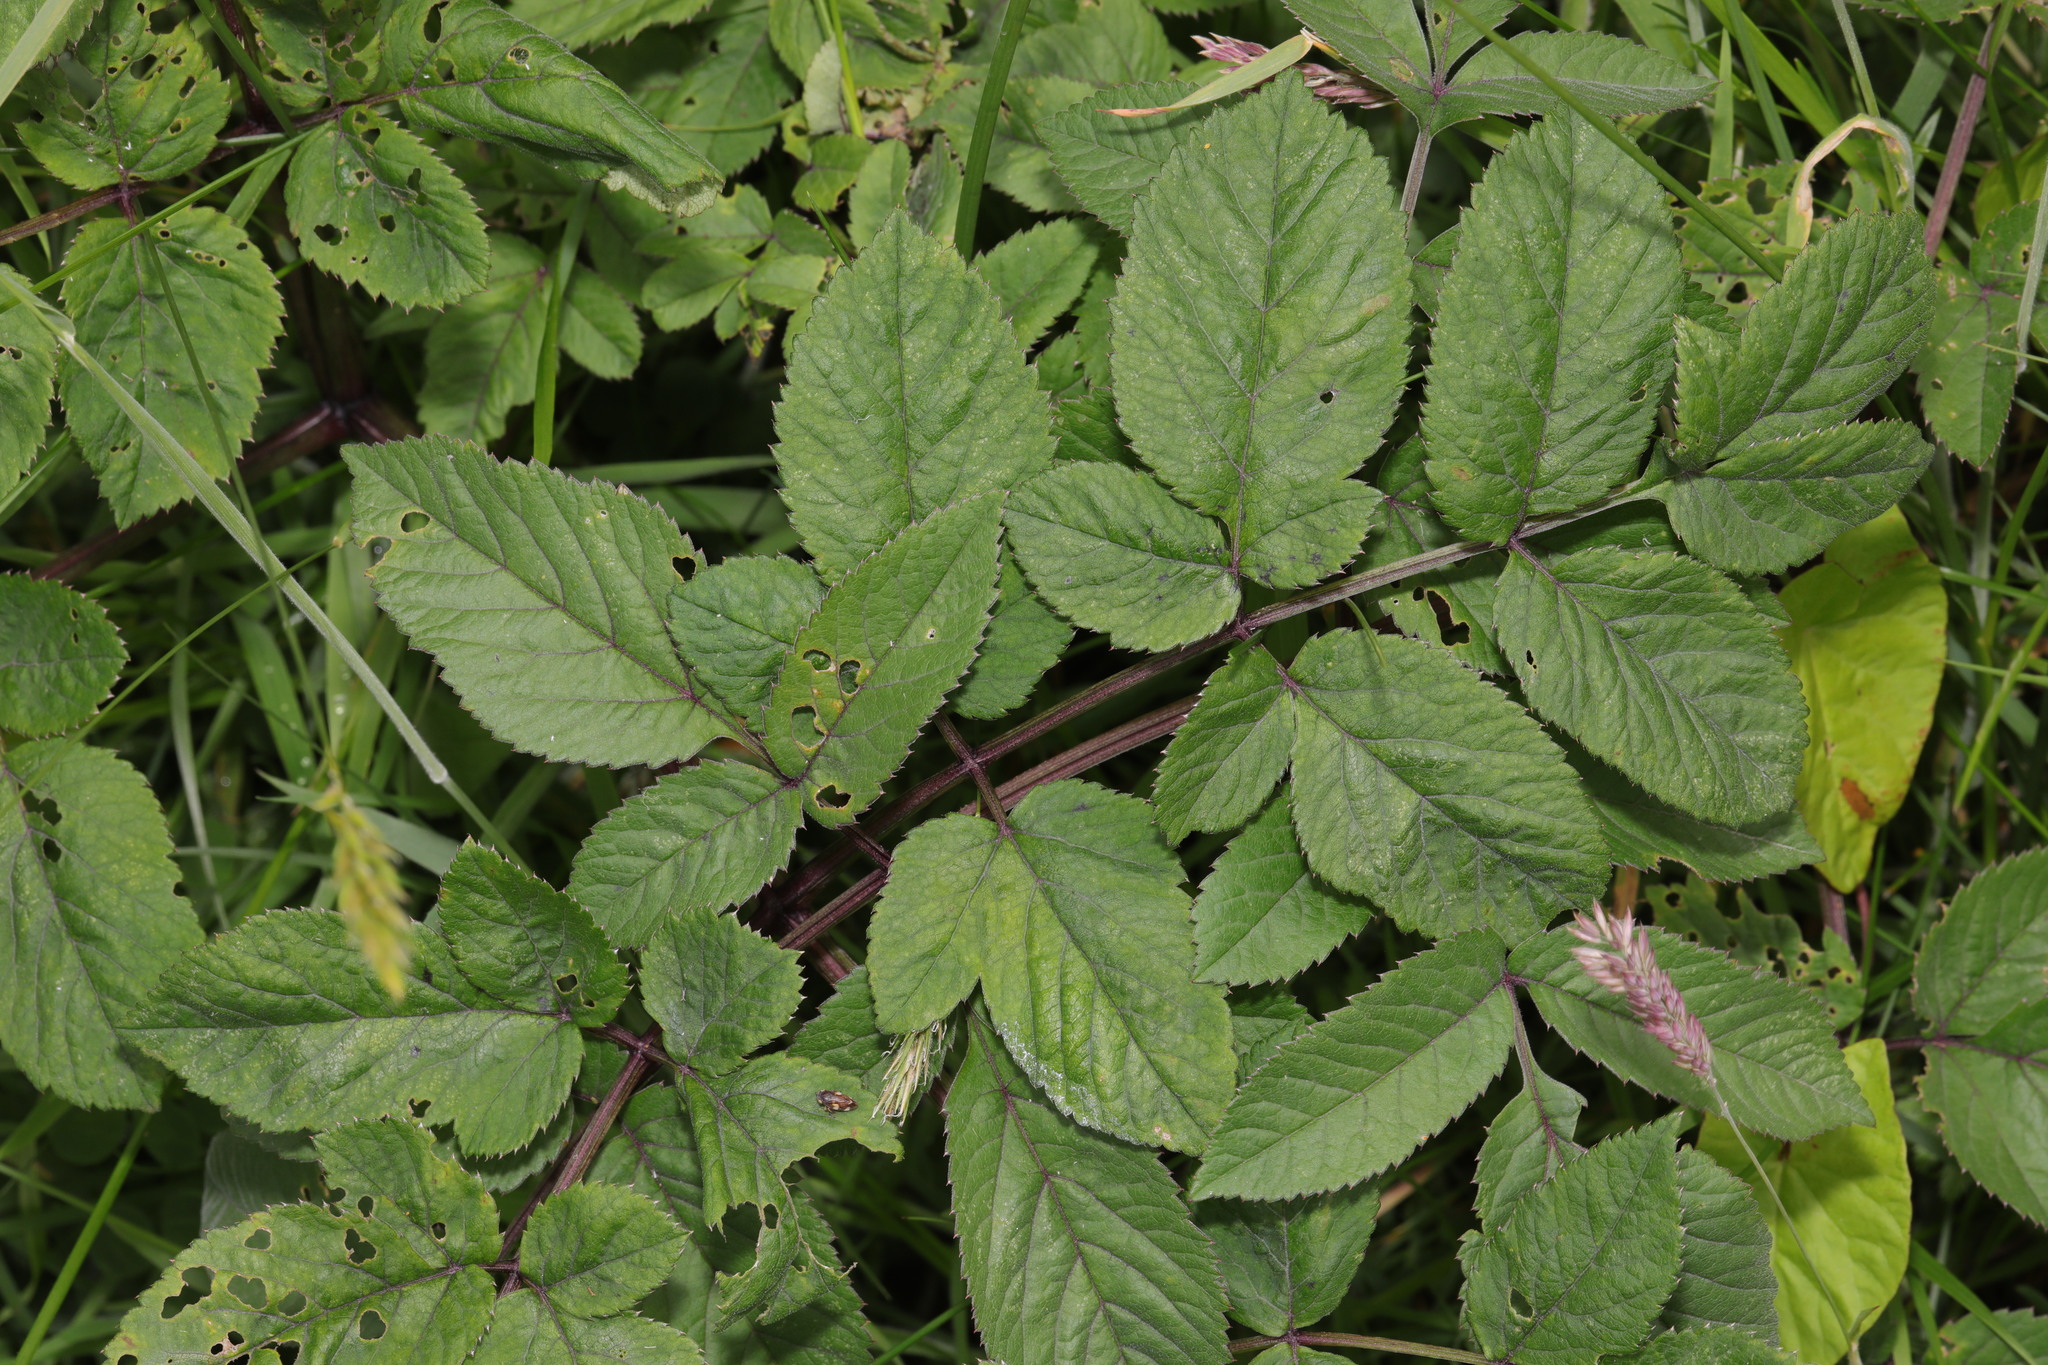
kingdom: Plantae
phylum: Tracheophyta
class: Magnoliopsida
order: Apiales
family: Apiaceae
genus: Angelica
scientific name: Angelica sylvestris
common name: Wild angelica
